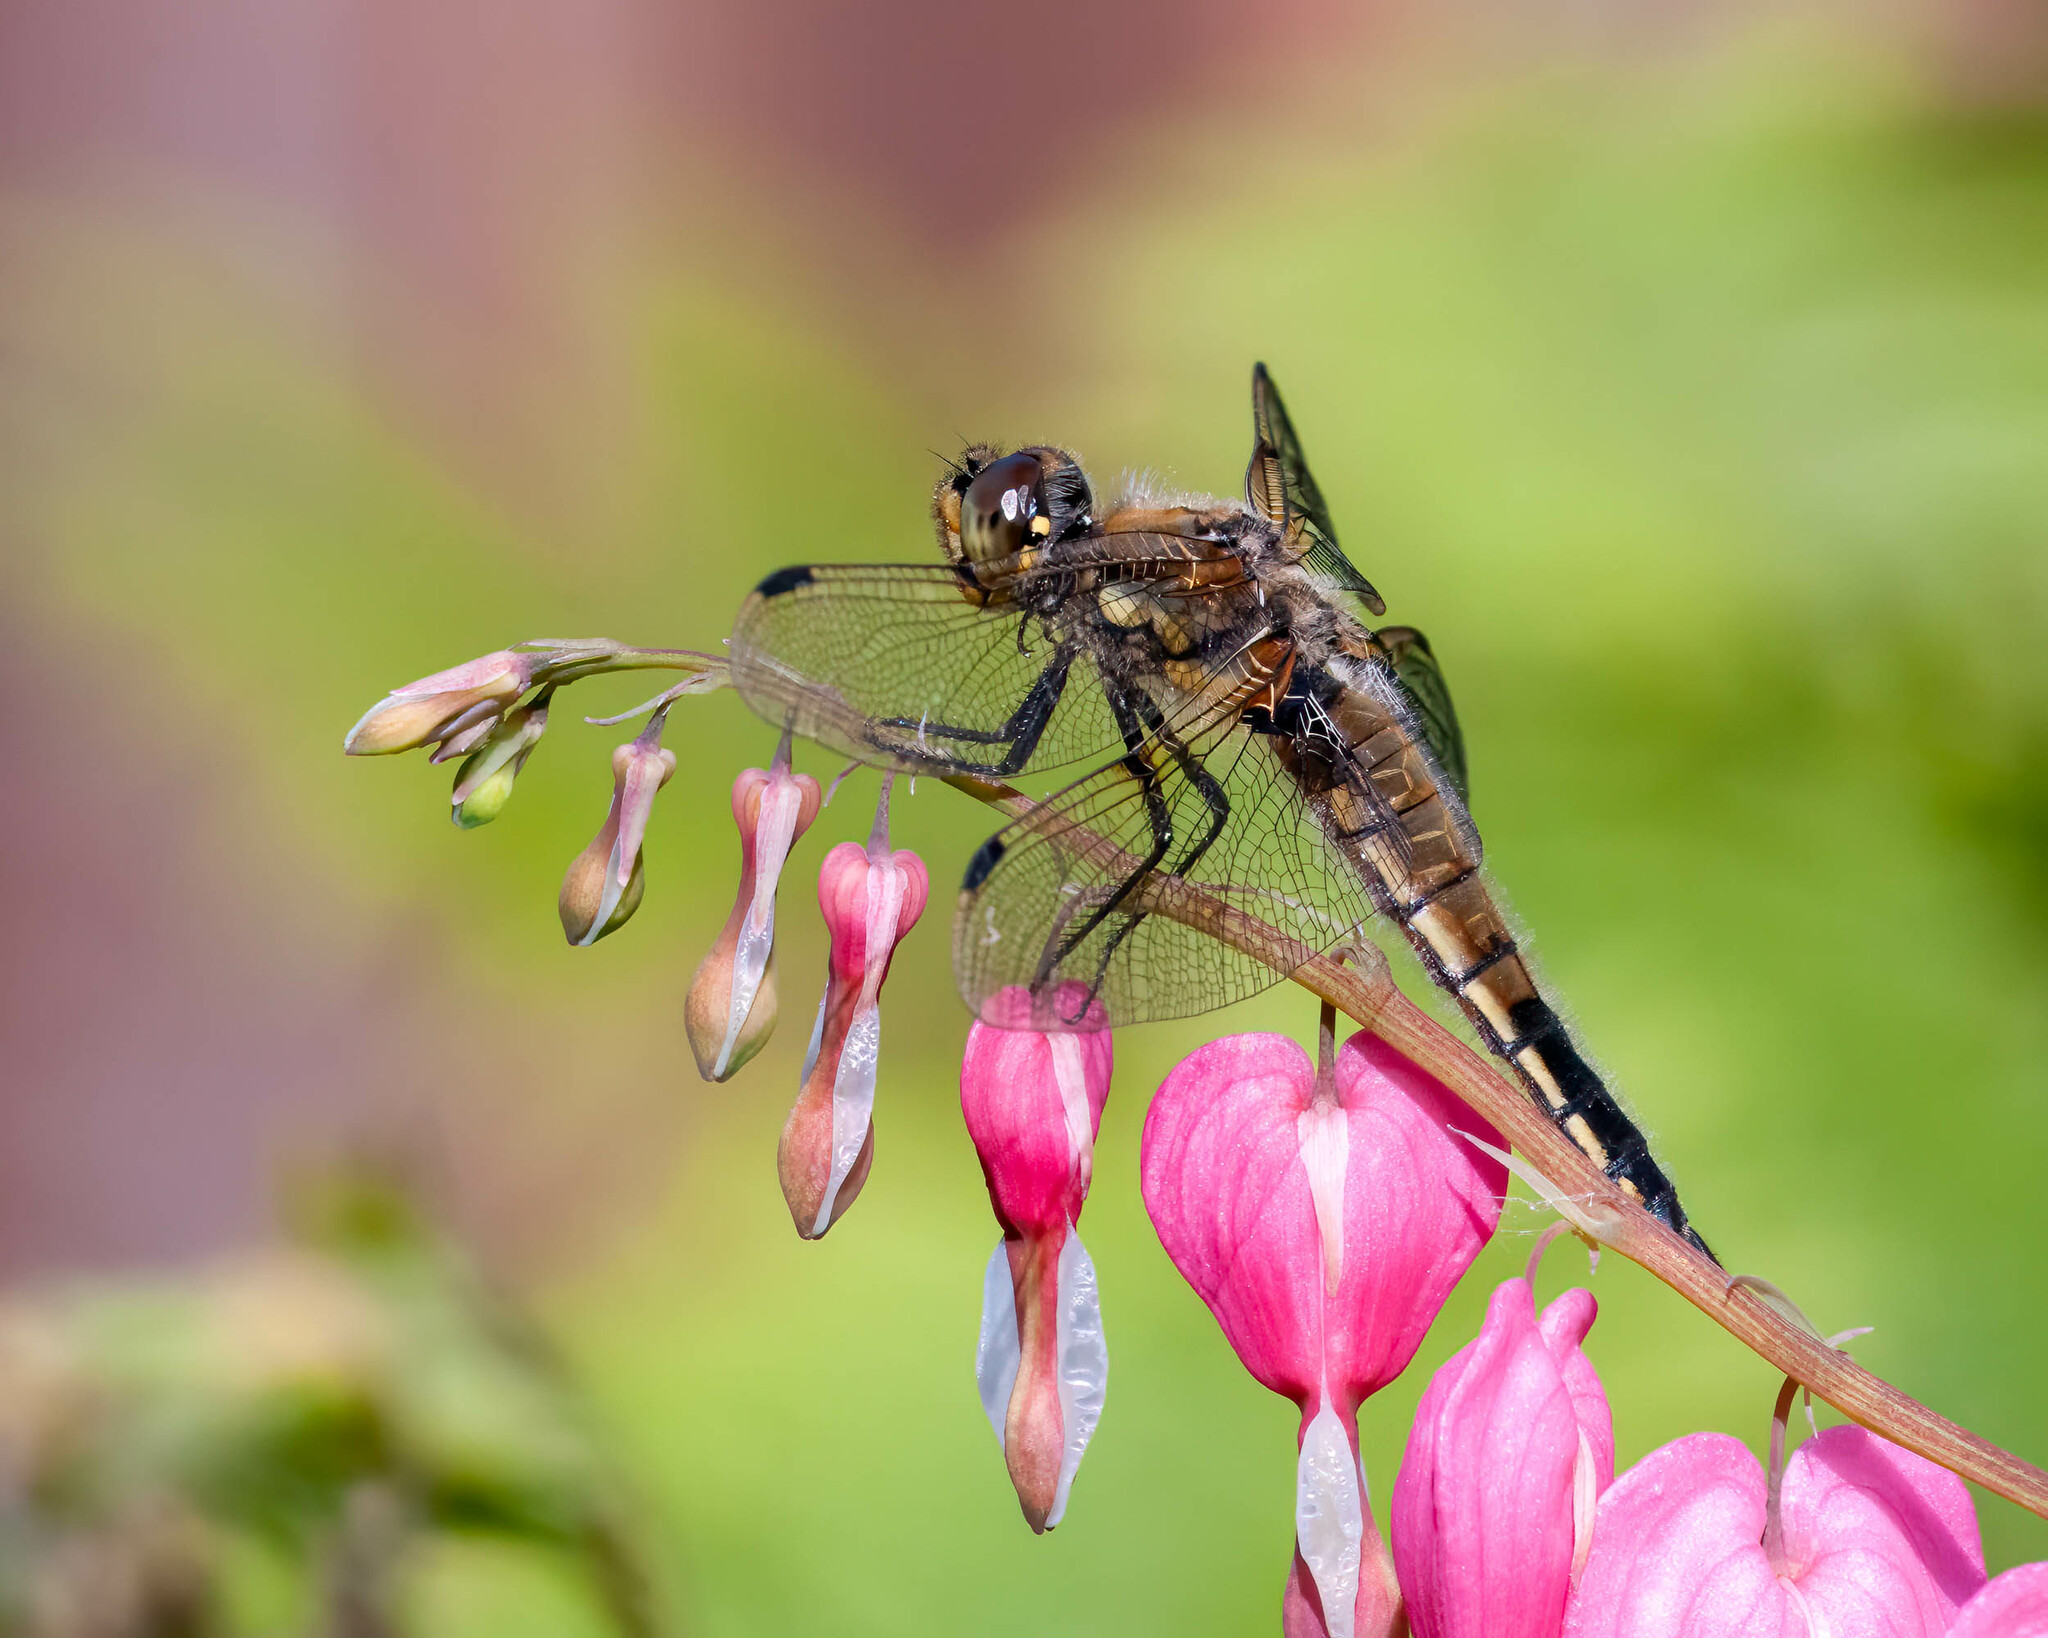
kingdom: Animalia
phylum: Arthropoda
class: Insecta
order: Odonata
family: Libellulidae
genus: Libellula
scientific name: Libellula quadrimaculata
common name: Four-spotted chaser
